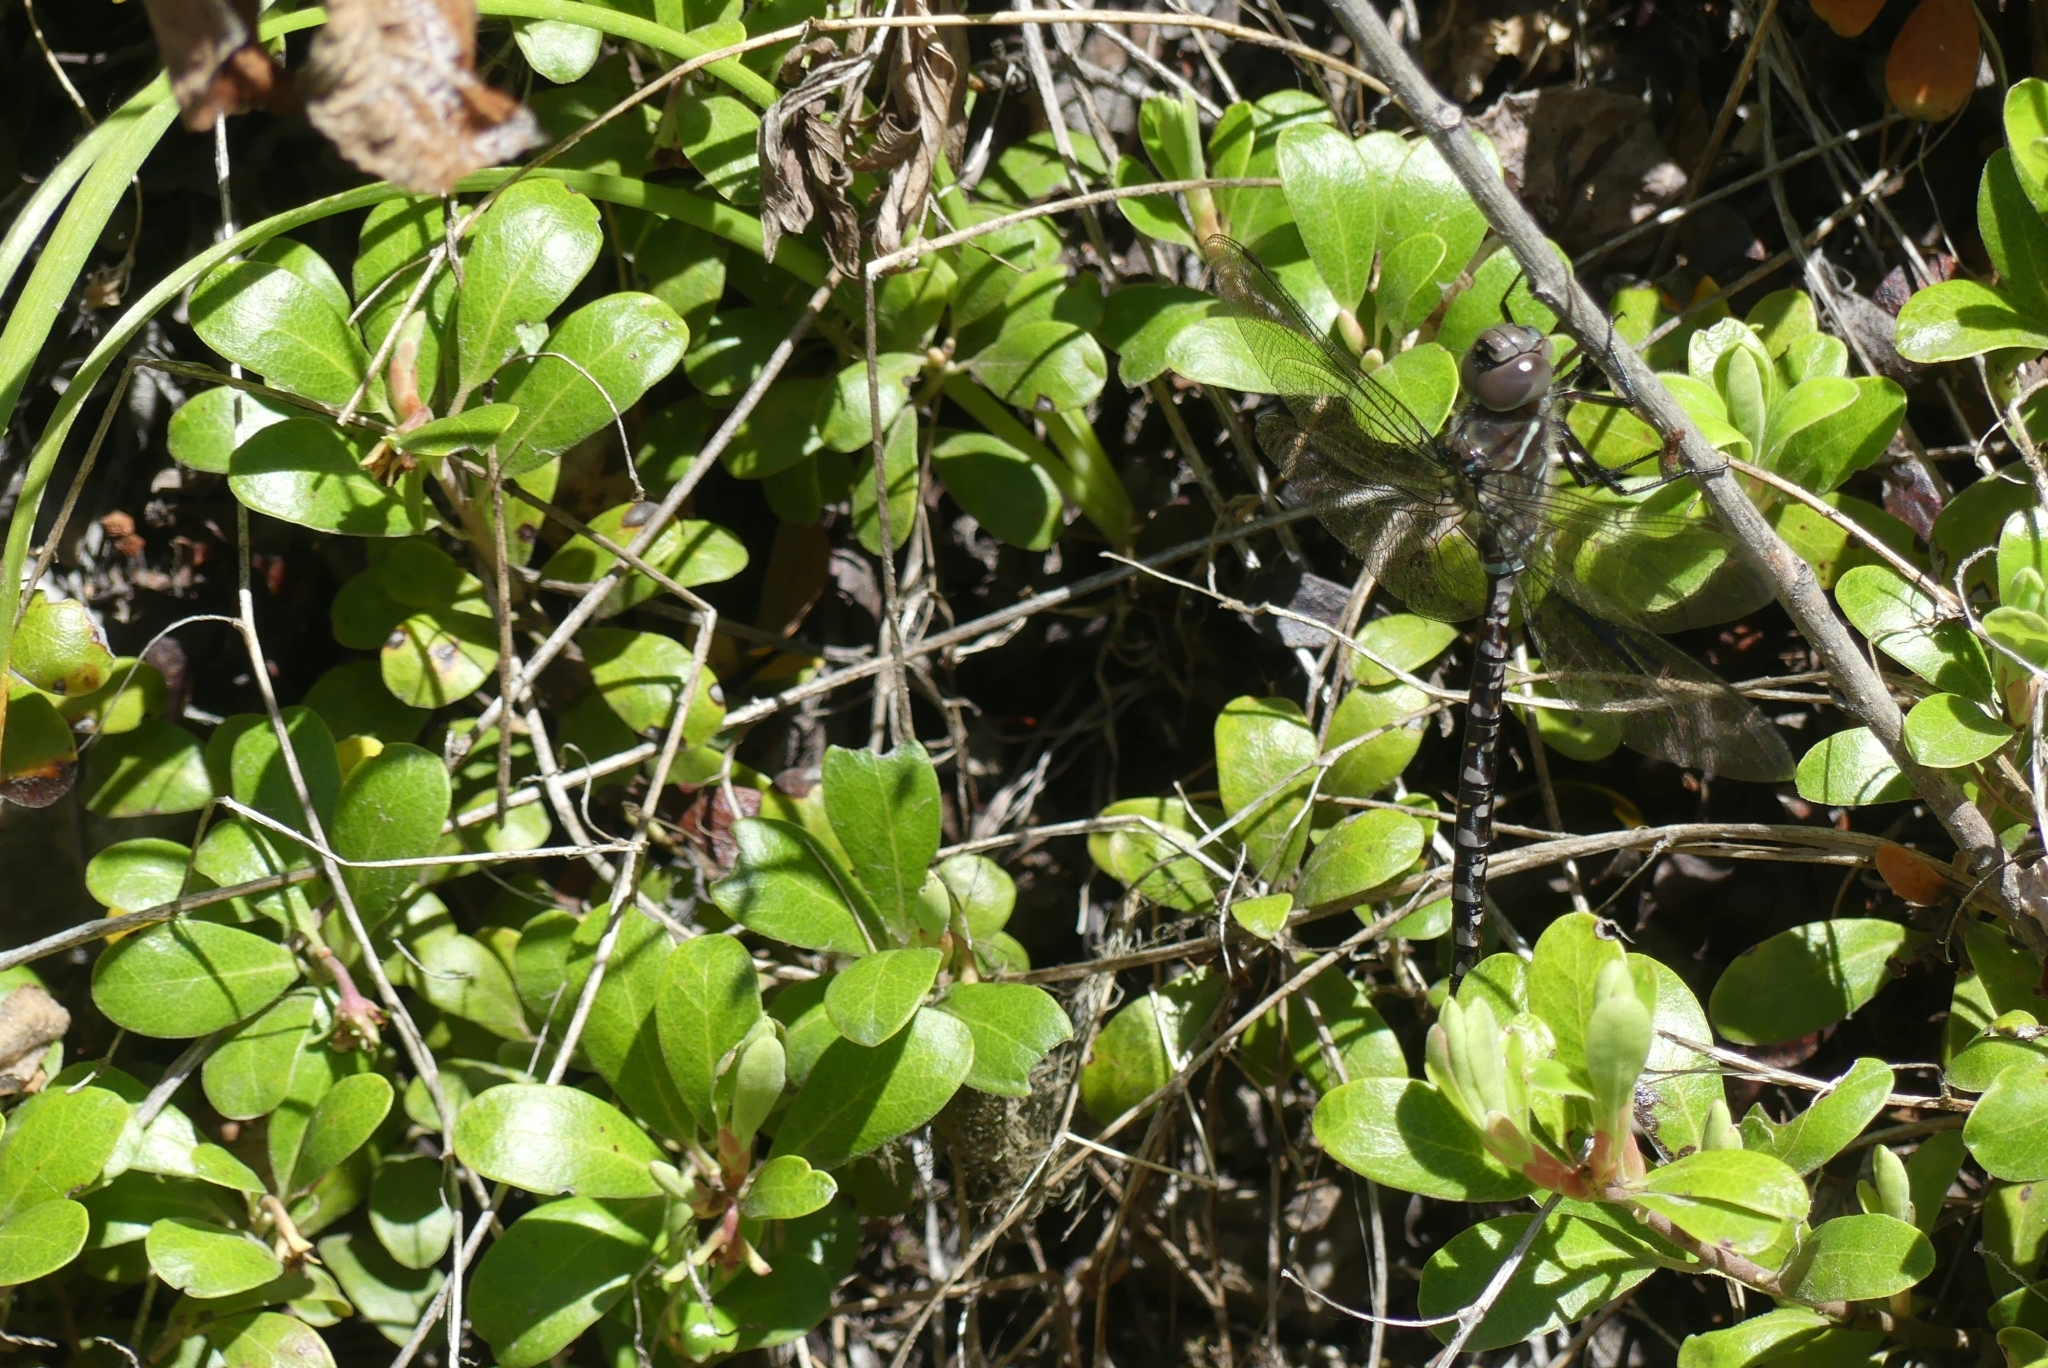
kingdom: Animalia
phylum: Arthropoda
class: Insecta
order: Odonata
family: Aeshnidae
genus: Aeshna
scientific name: Aeshna interrupta
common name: Variable darner
